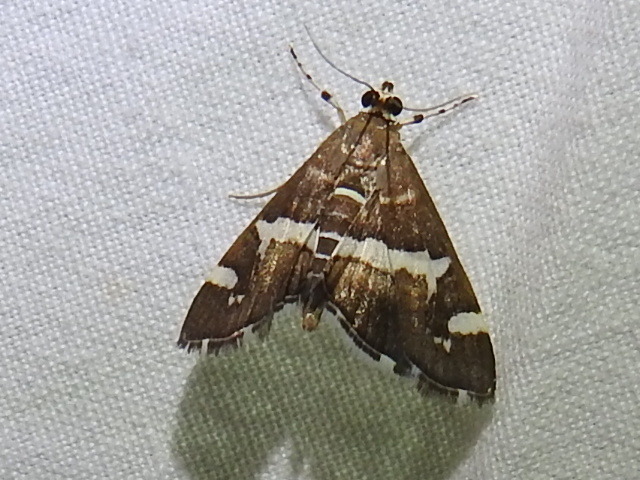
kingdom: Animalia
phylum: Arthropoda
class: Insecta
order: Lepidoptera
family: Crambidae
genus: Spoladea
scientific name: Spoladea recurvalis
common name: Beet webworm moth
